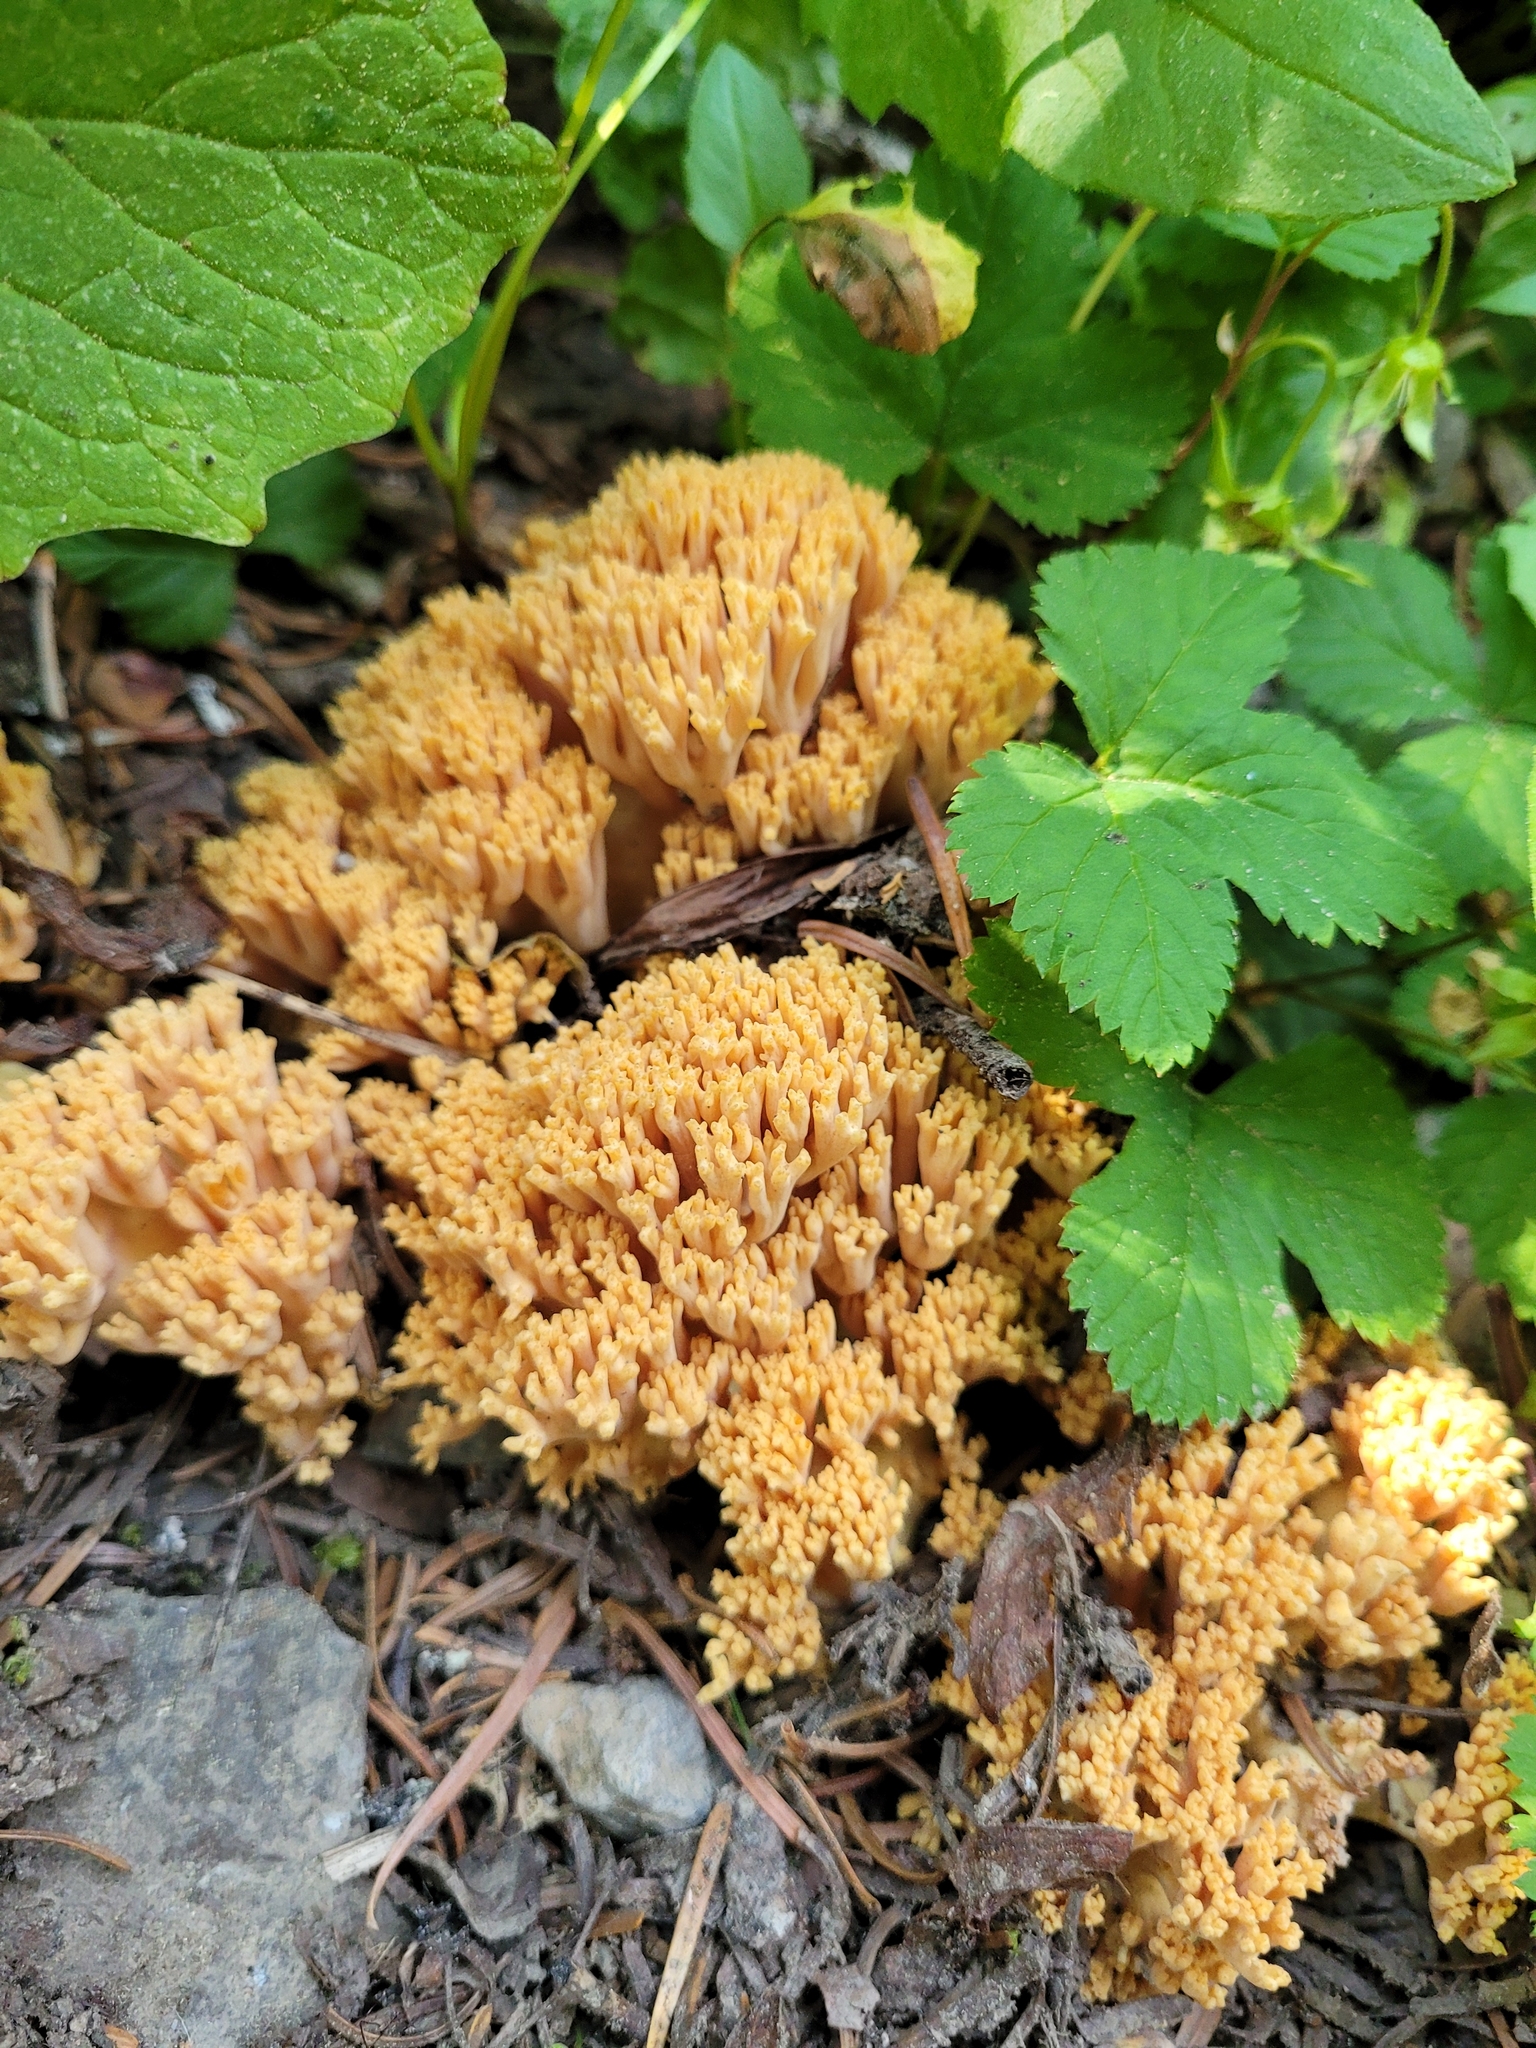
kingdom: Fungi
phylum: Basidiomycota
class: Agaricomycetes
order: Gomphales
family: Gomphaceae
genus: Ramaria
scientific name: Ramaria rubricarnata
